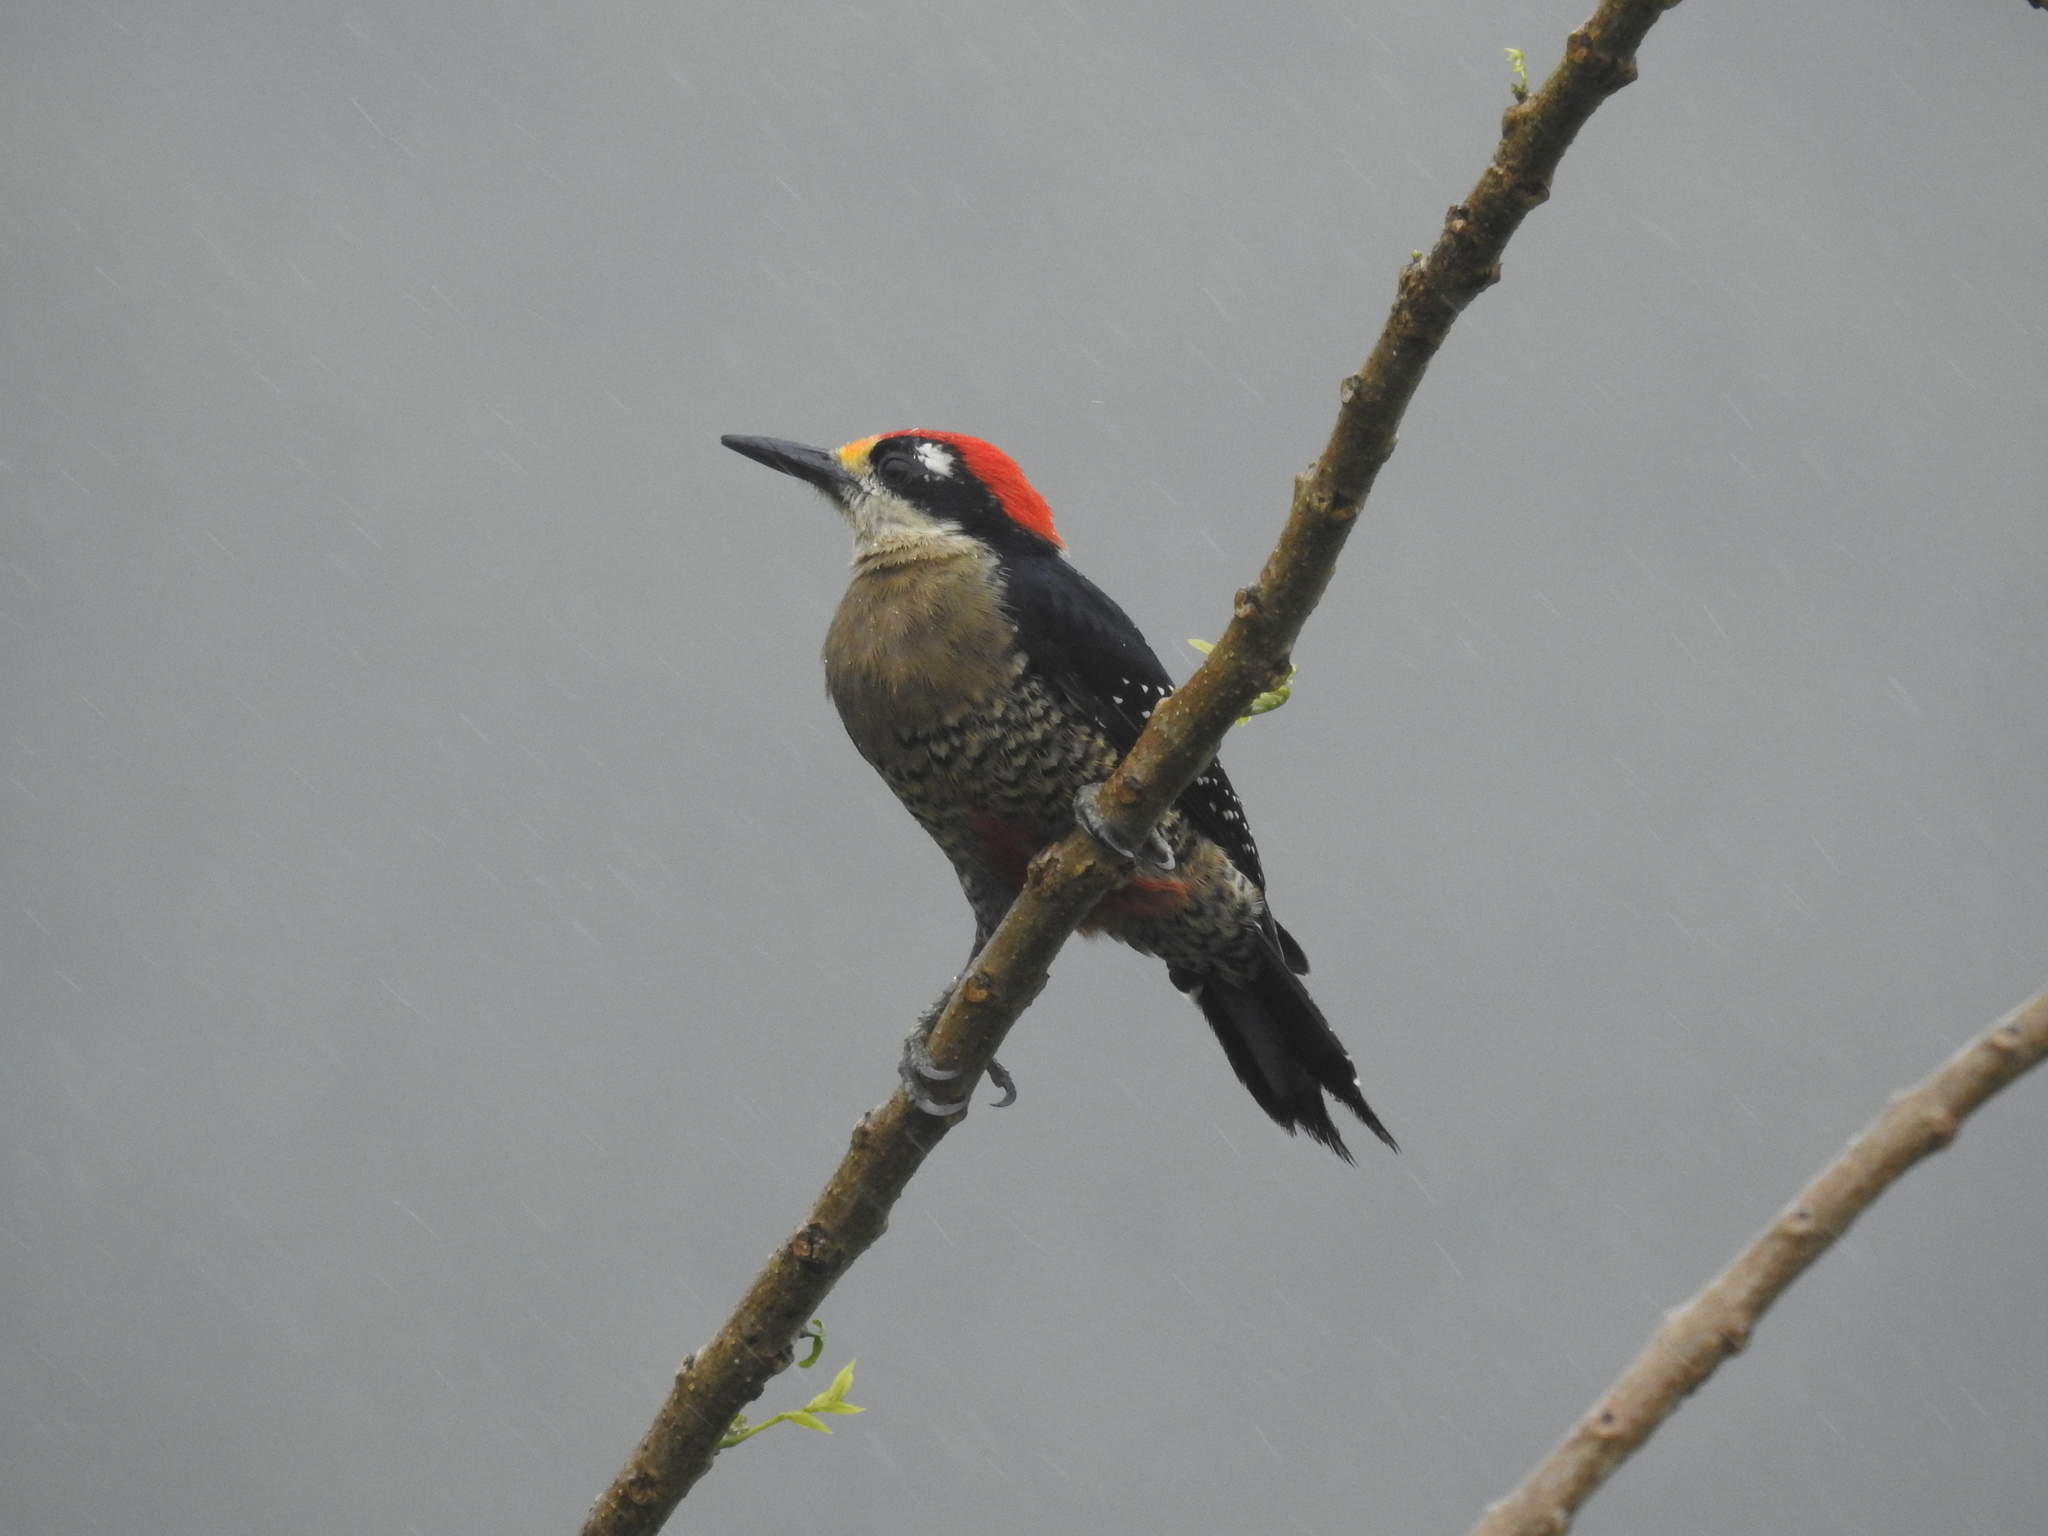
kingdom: Animalia
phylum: Chordata
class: Aves
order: Piciformes
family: Picidae
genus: Melanerpes
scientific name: Melanerpes pucherani
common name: Black-cheeked woodpecker
